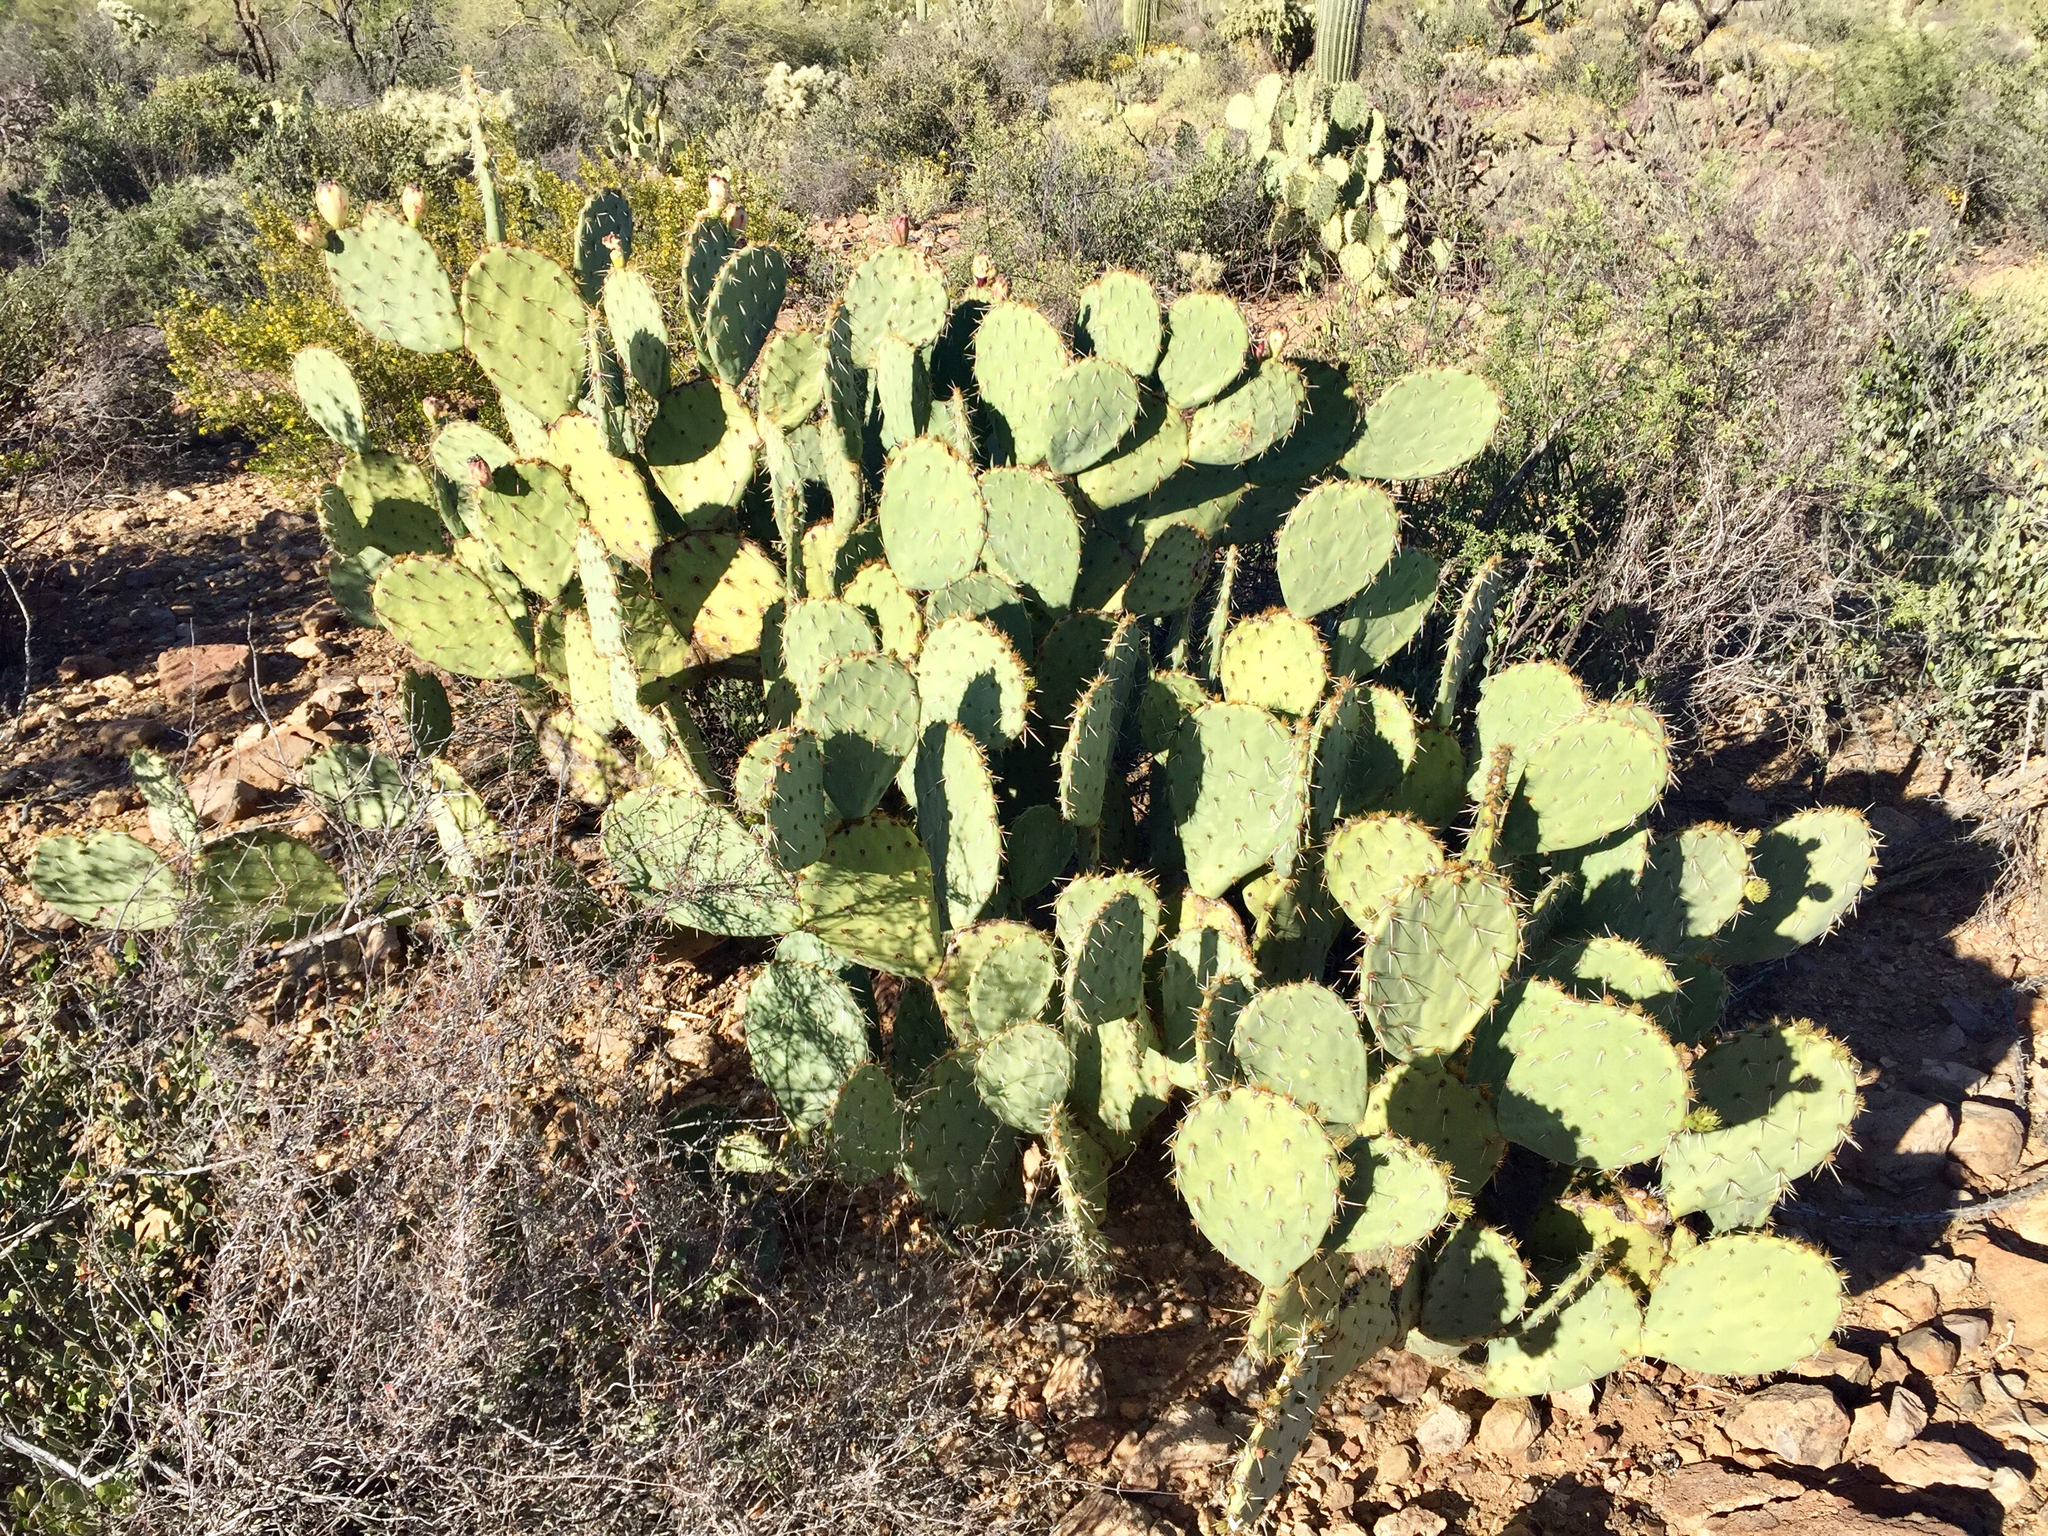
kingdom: Plantae
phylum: Tracheophyta
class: Magnoliopsida
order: Caryophyllales
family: Cactaceae
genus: Opuntia
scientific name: Opuntia engelmannii
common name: Cactus-apple
